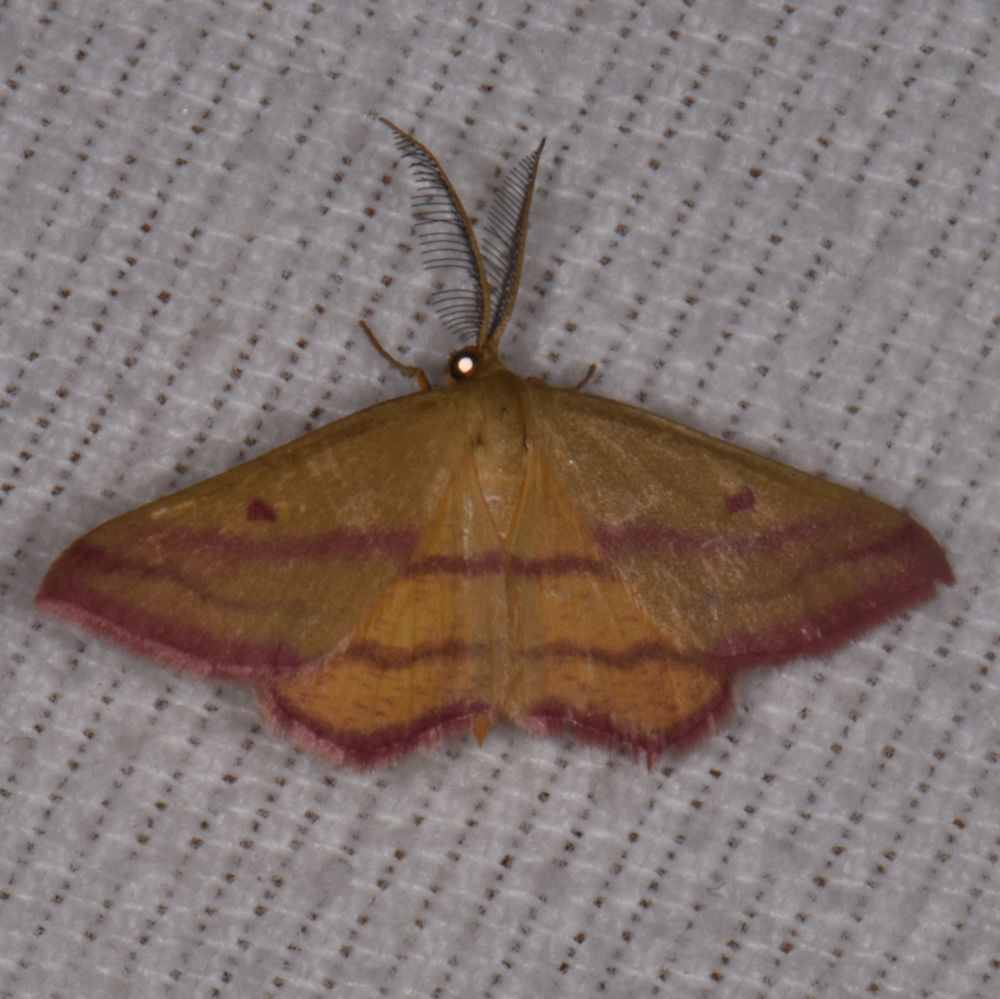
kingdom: Animalia
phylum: Arthropoda
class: Insecta
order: Lepidoptera
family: Geometridae
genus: Haematopis
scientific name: Haematopis grataria
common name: Chickweed geometer
